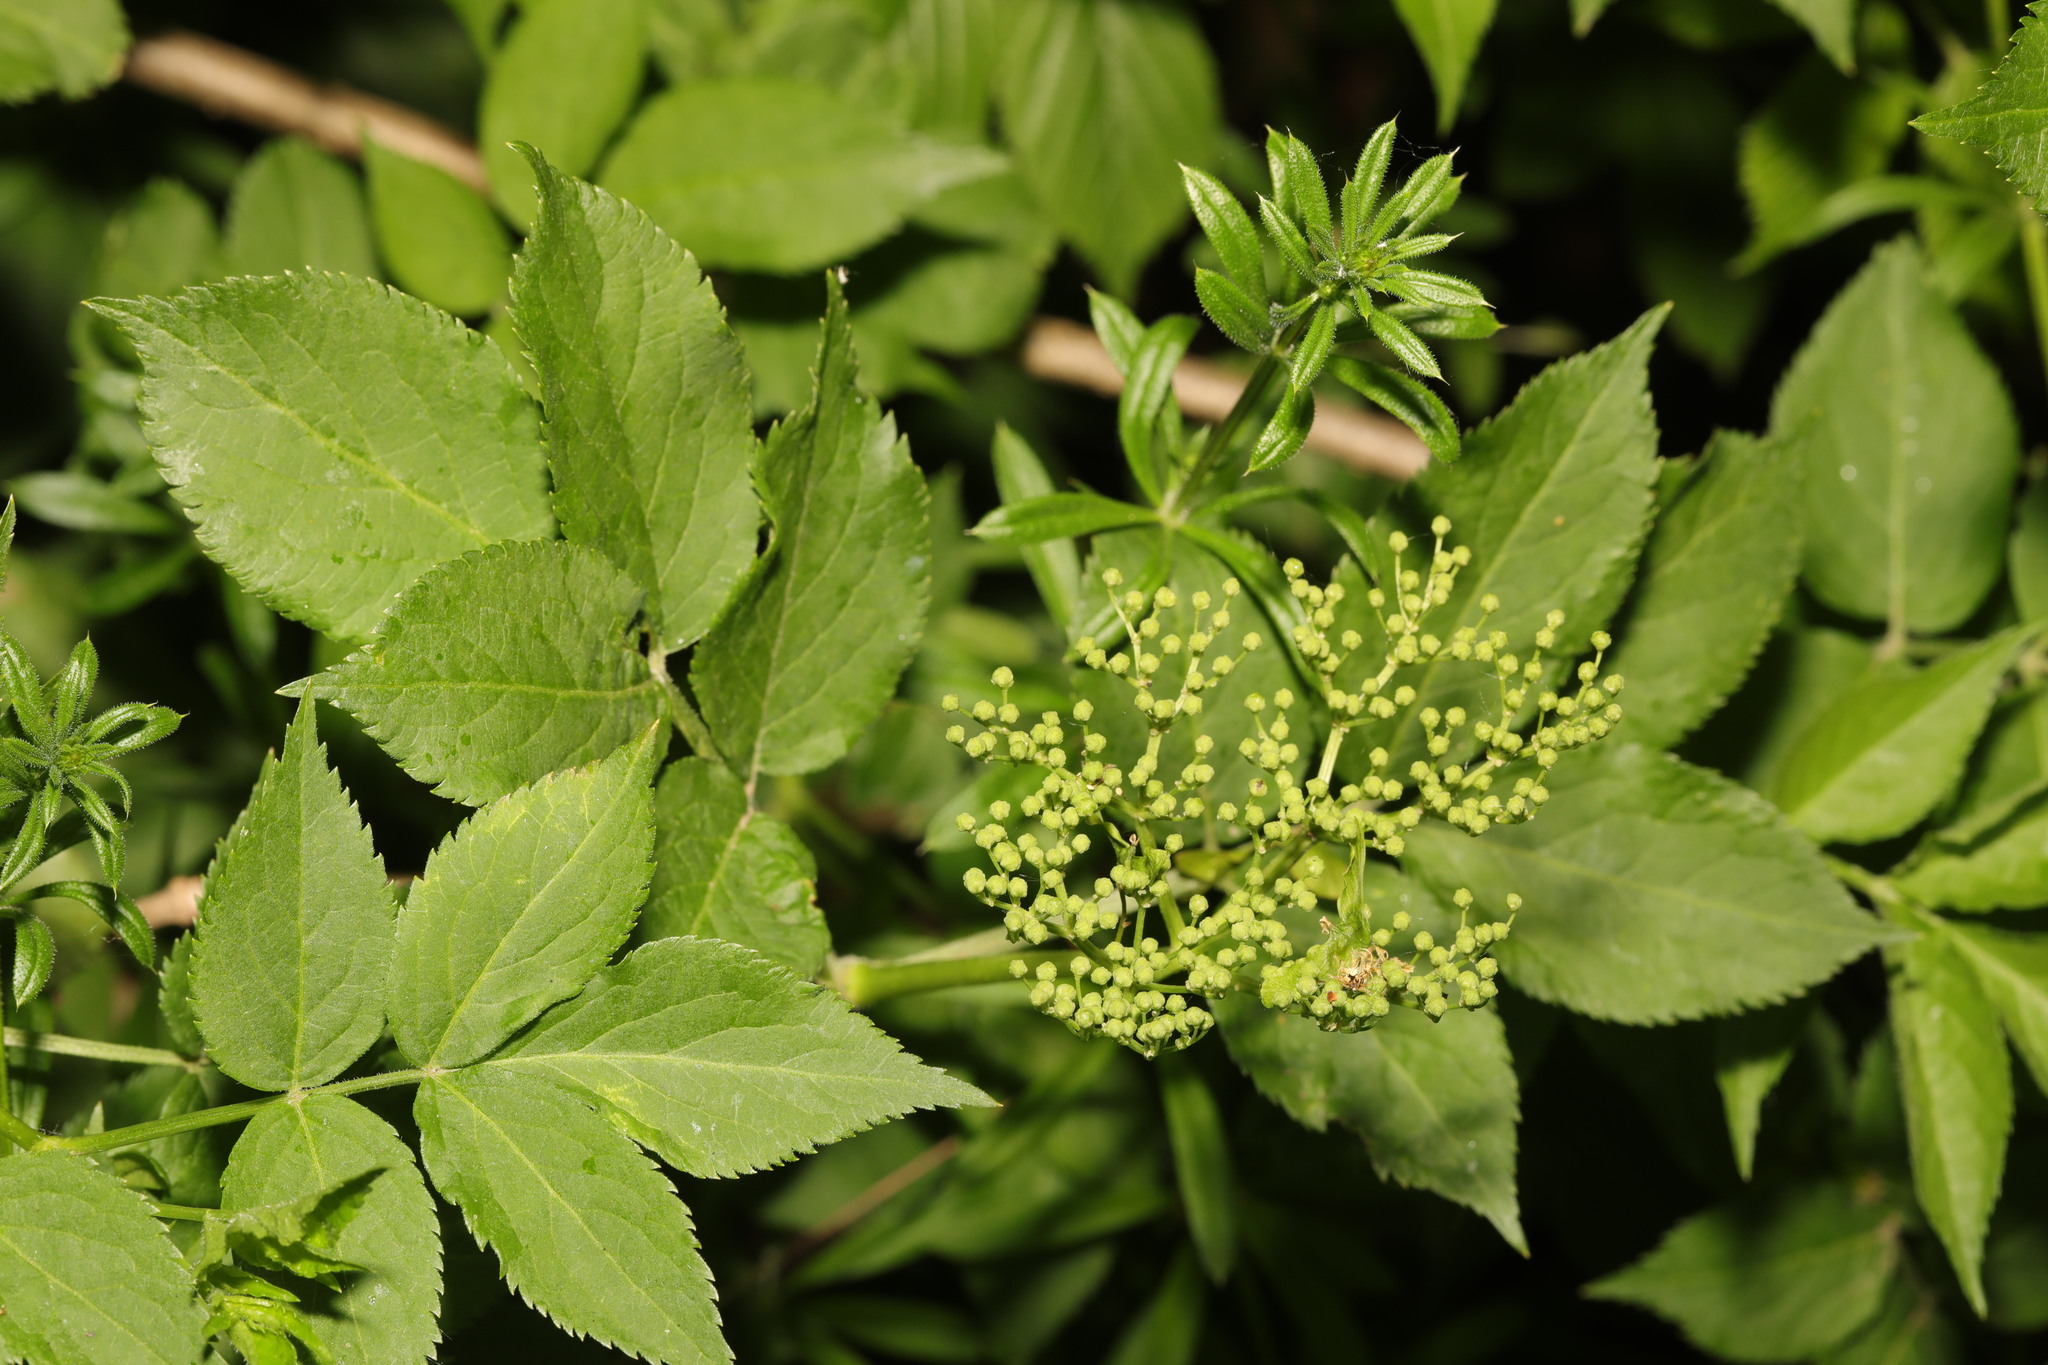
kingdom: Plantae
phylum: Tracheophyta
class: Magnoliopsida
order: Dipsacales
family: Viburnaceae
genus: Sambucus
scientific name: Sambucus nigra
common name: Elder
